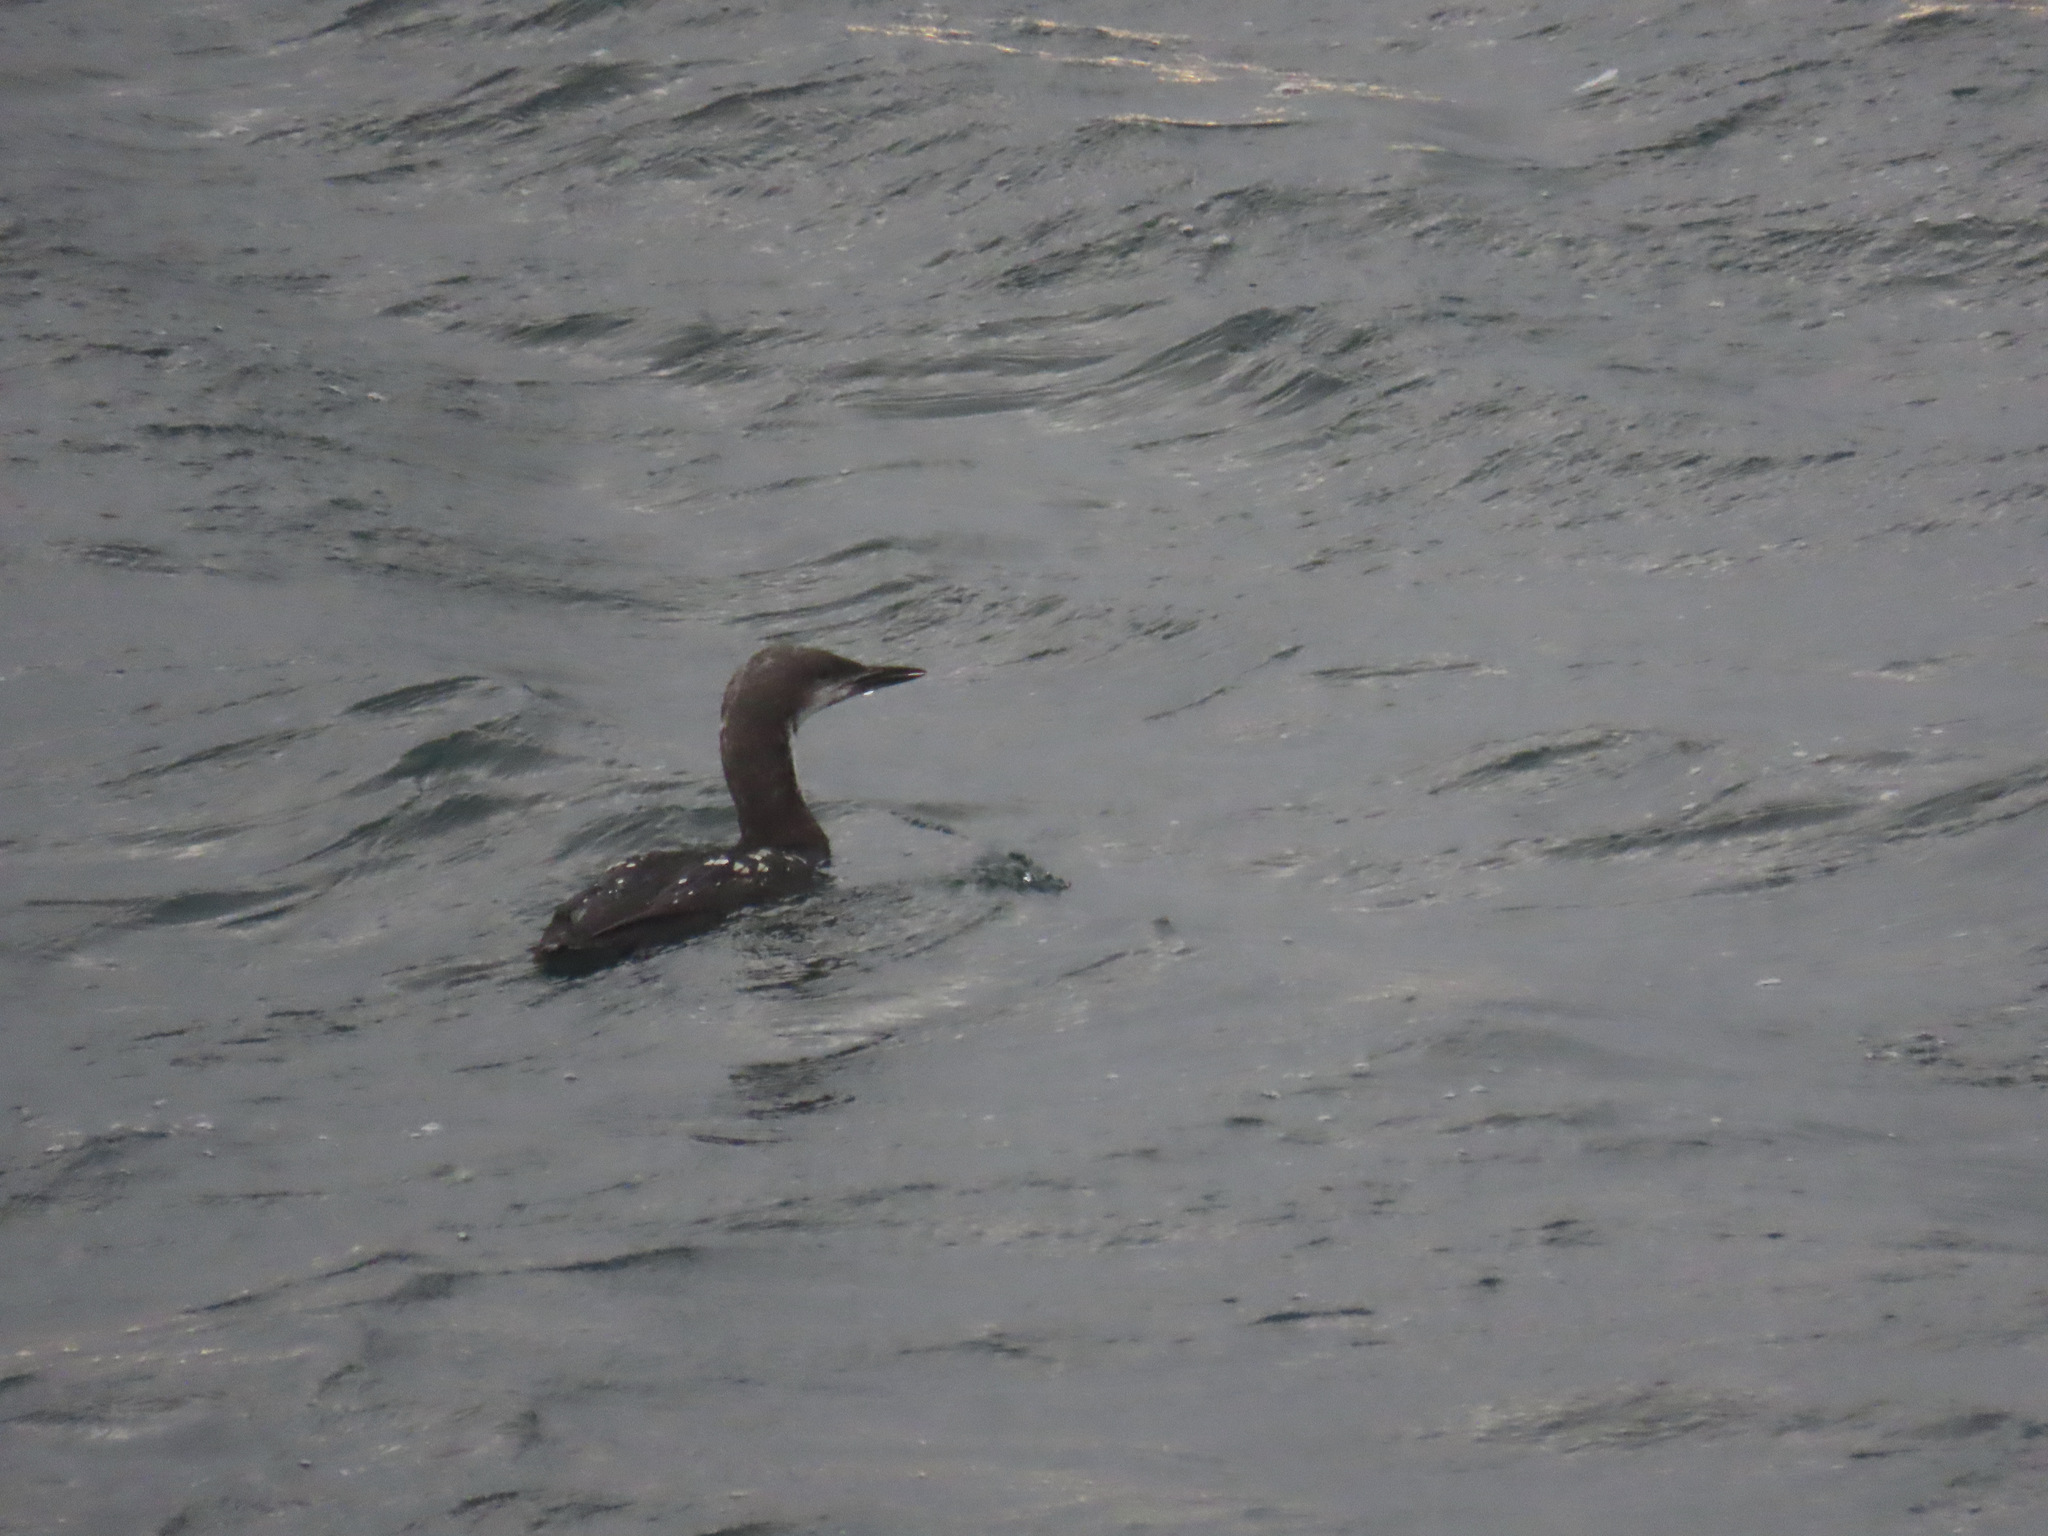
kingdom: Animalia
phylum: Chordata
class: Aves
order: Gaviiformes
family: Gaviidae
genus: Gavia
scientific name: Gavia pacifica
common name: Pacific loon
